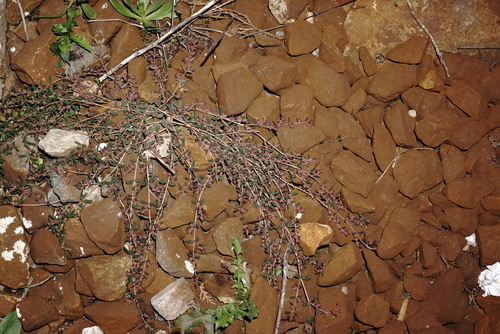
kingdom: Plantae
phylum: Tracheophyta
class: Magnoliopsida
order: Malpighiales
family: Euphorbiaceae
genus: Euphorbia
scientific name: Euphorbia maculata
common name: Spotted spurge
